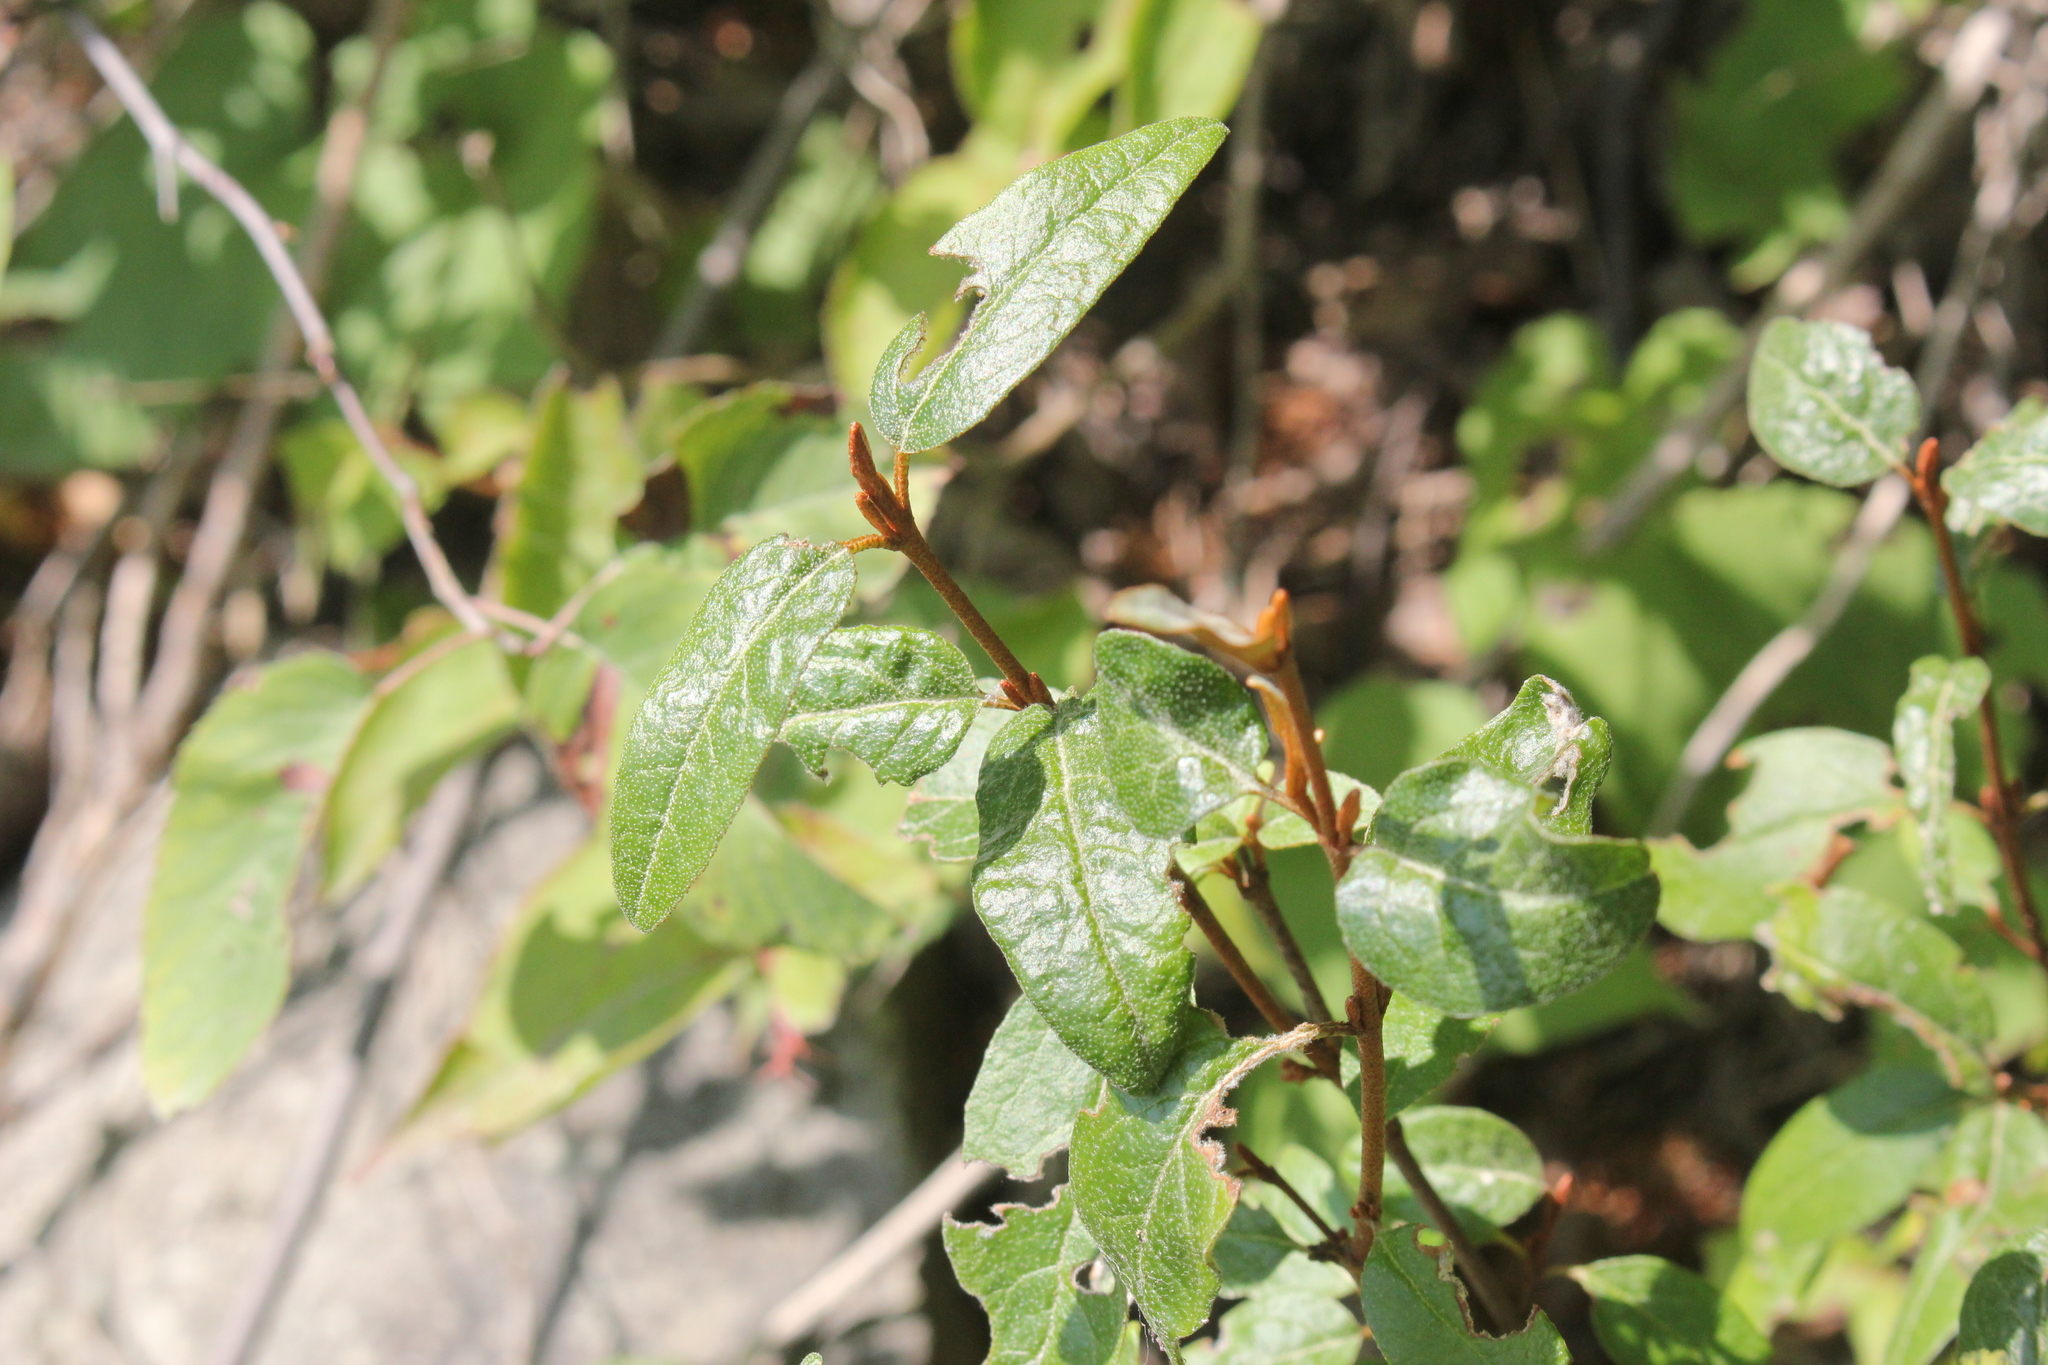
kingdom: Plantae
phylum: Tracheophyta
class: Magnoliopsida
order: Rosales
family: Elaeagnaceae
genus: Shepherdia
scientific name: Shepherdia canadensis
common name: Soapberry
